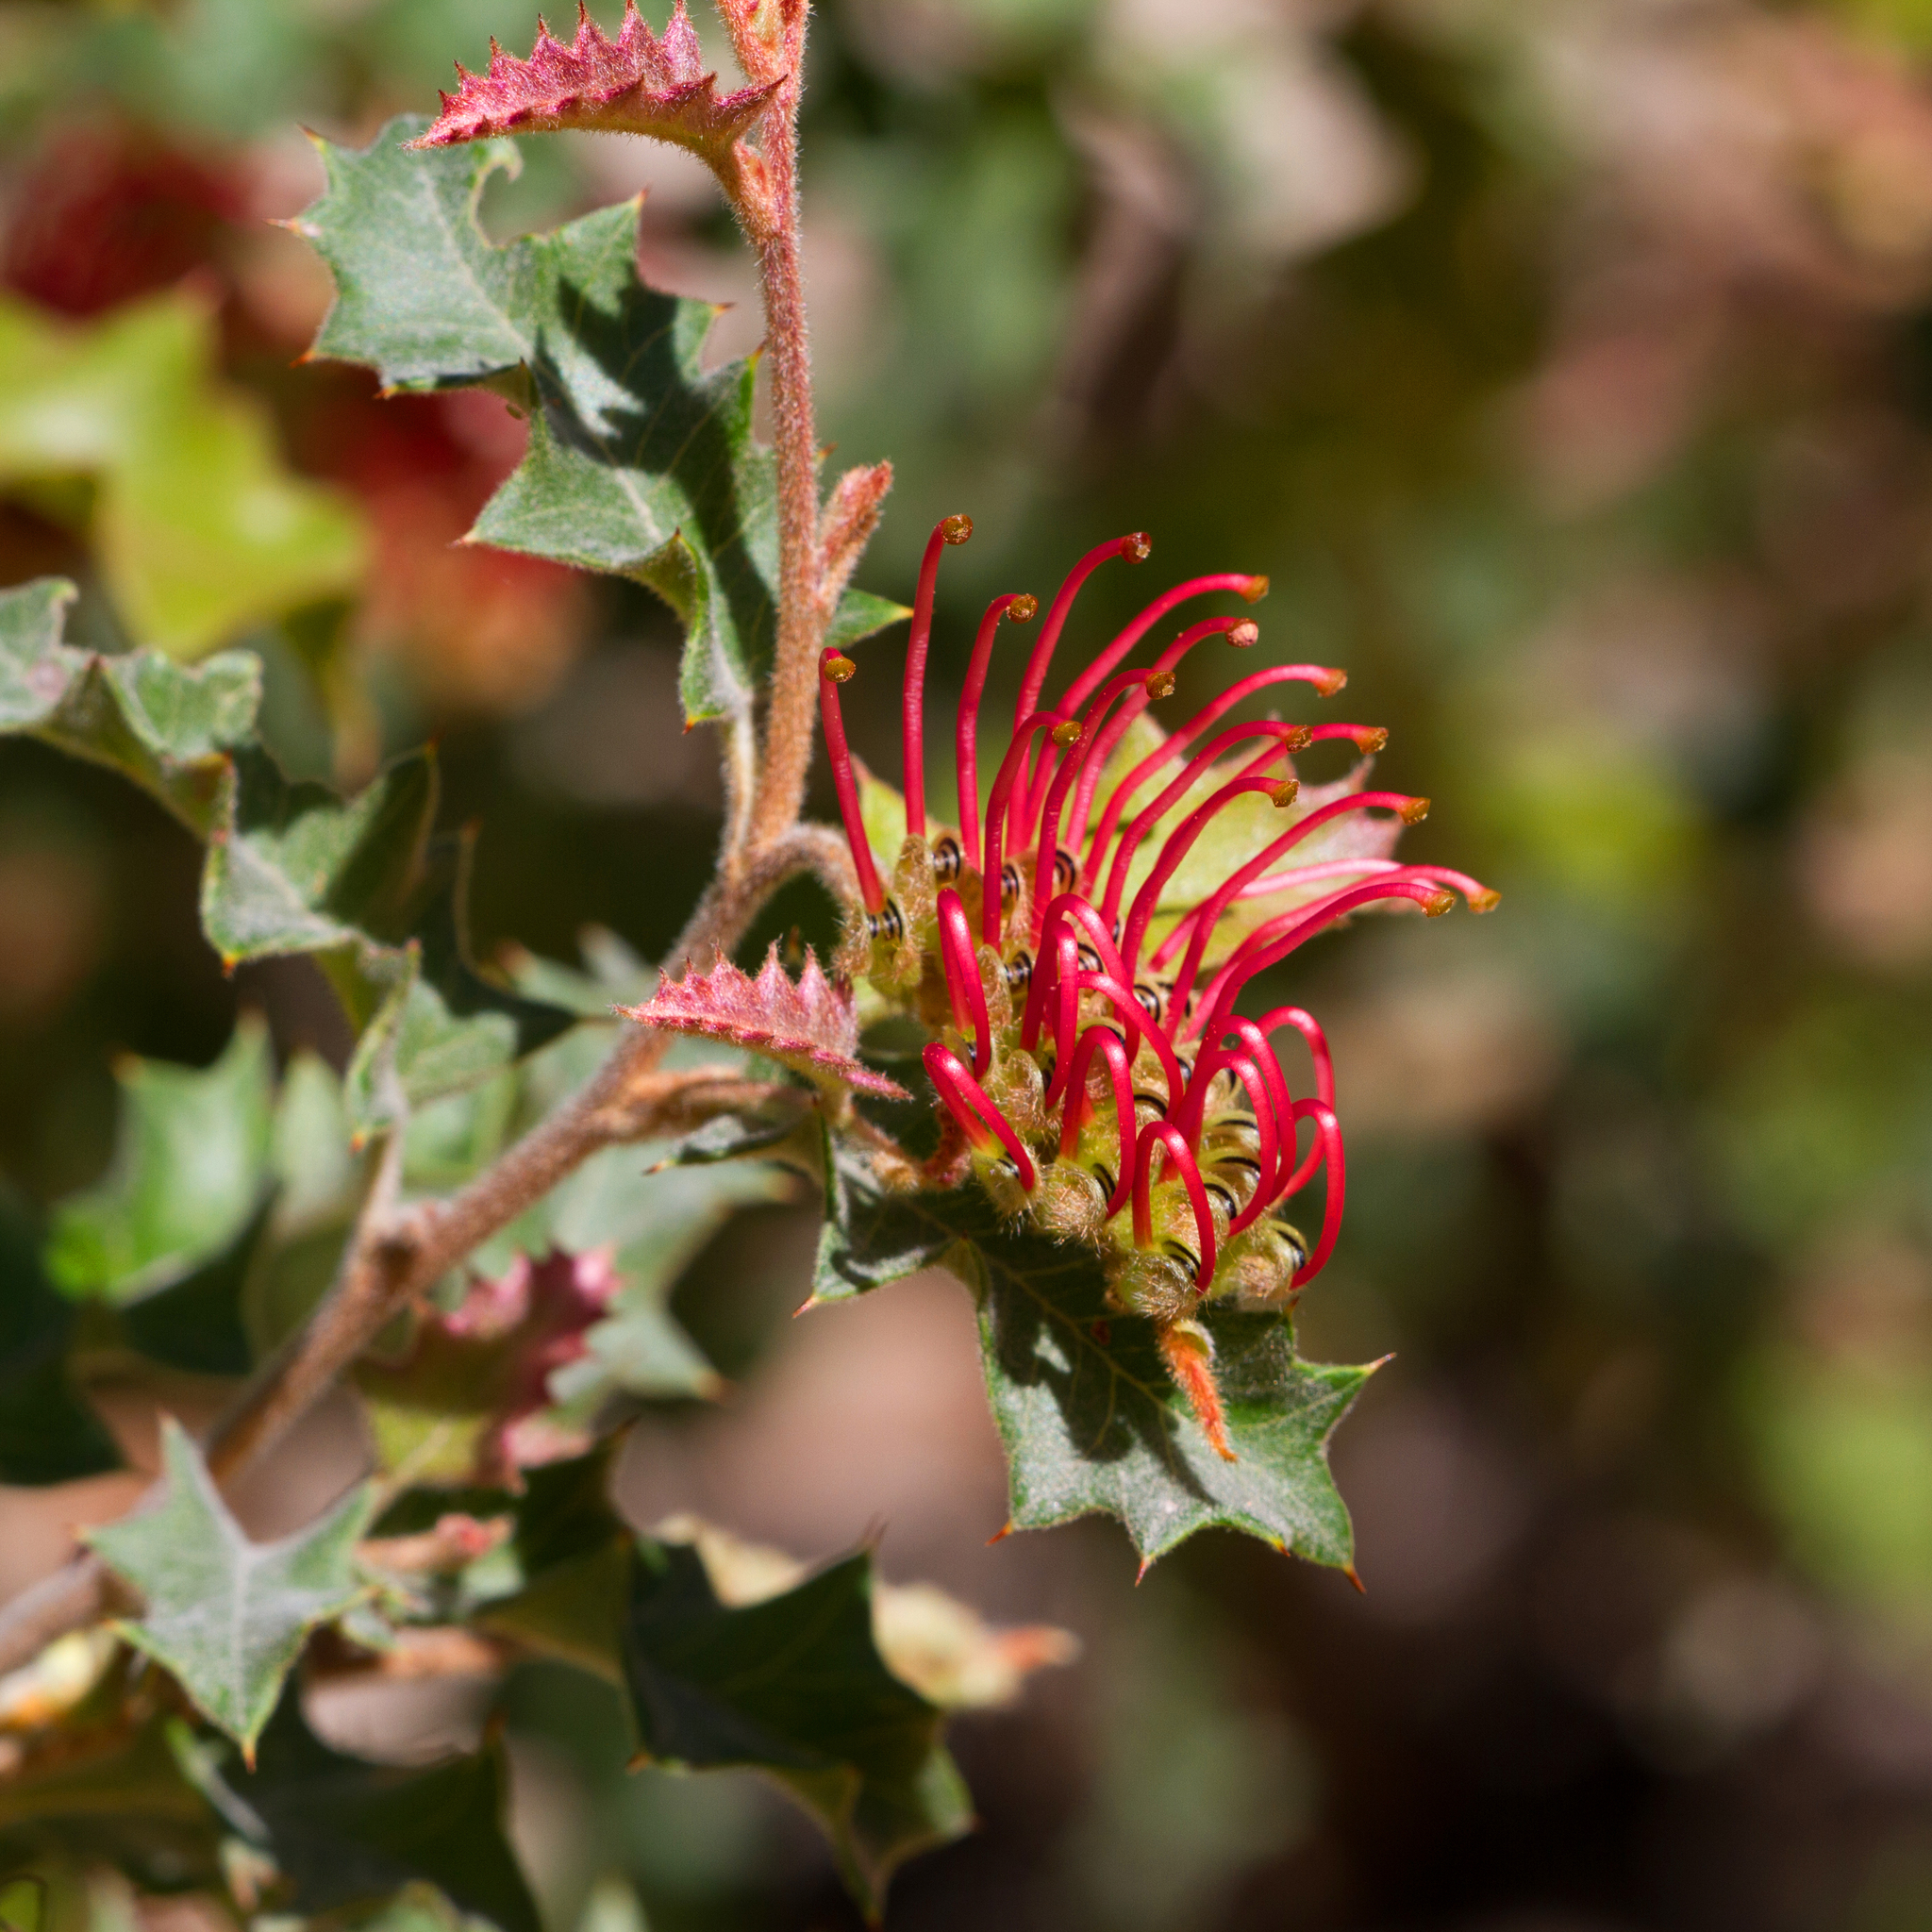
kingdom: Plantae
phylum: Tracheophyta
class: Magnoliopsida
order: Proteales
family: Proteaceae
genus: Grevillea
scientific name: Grevillea aquifolium
